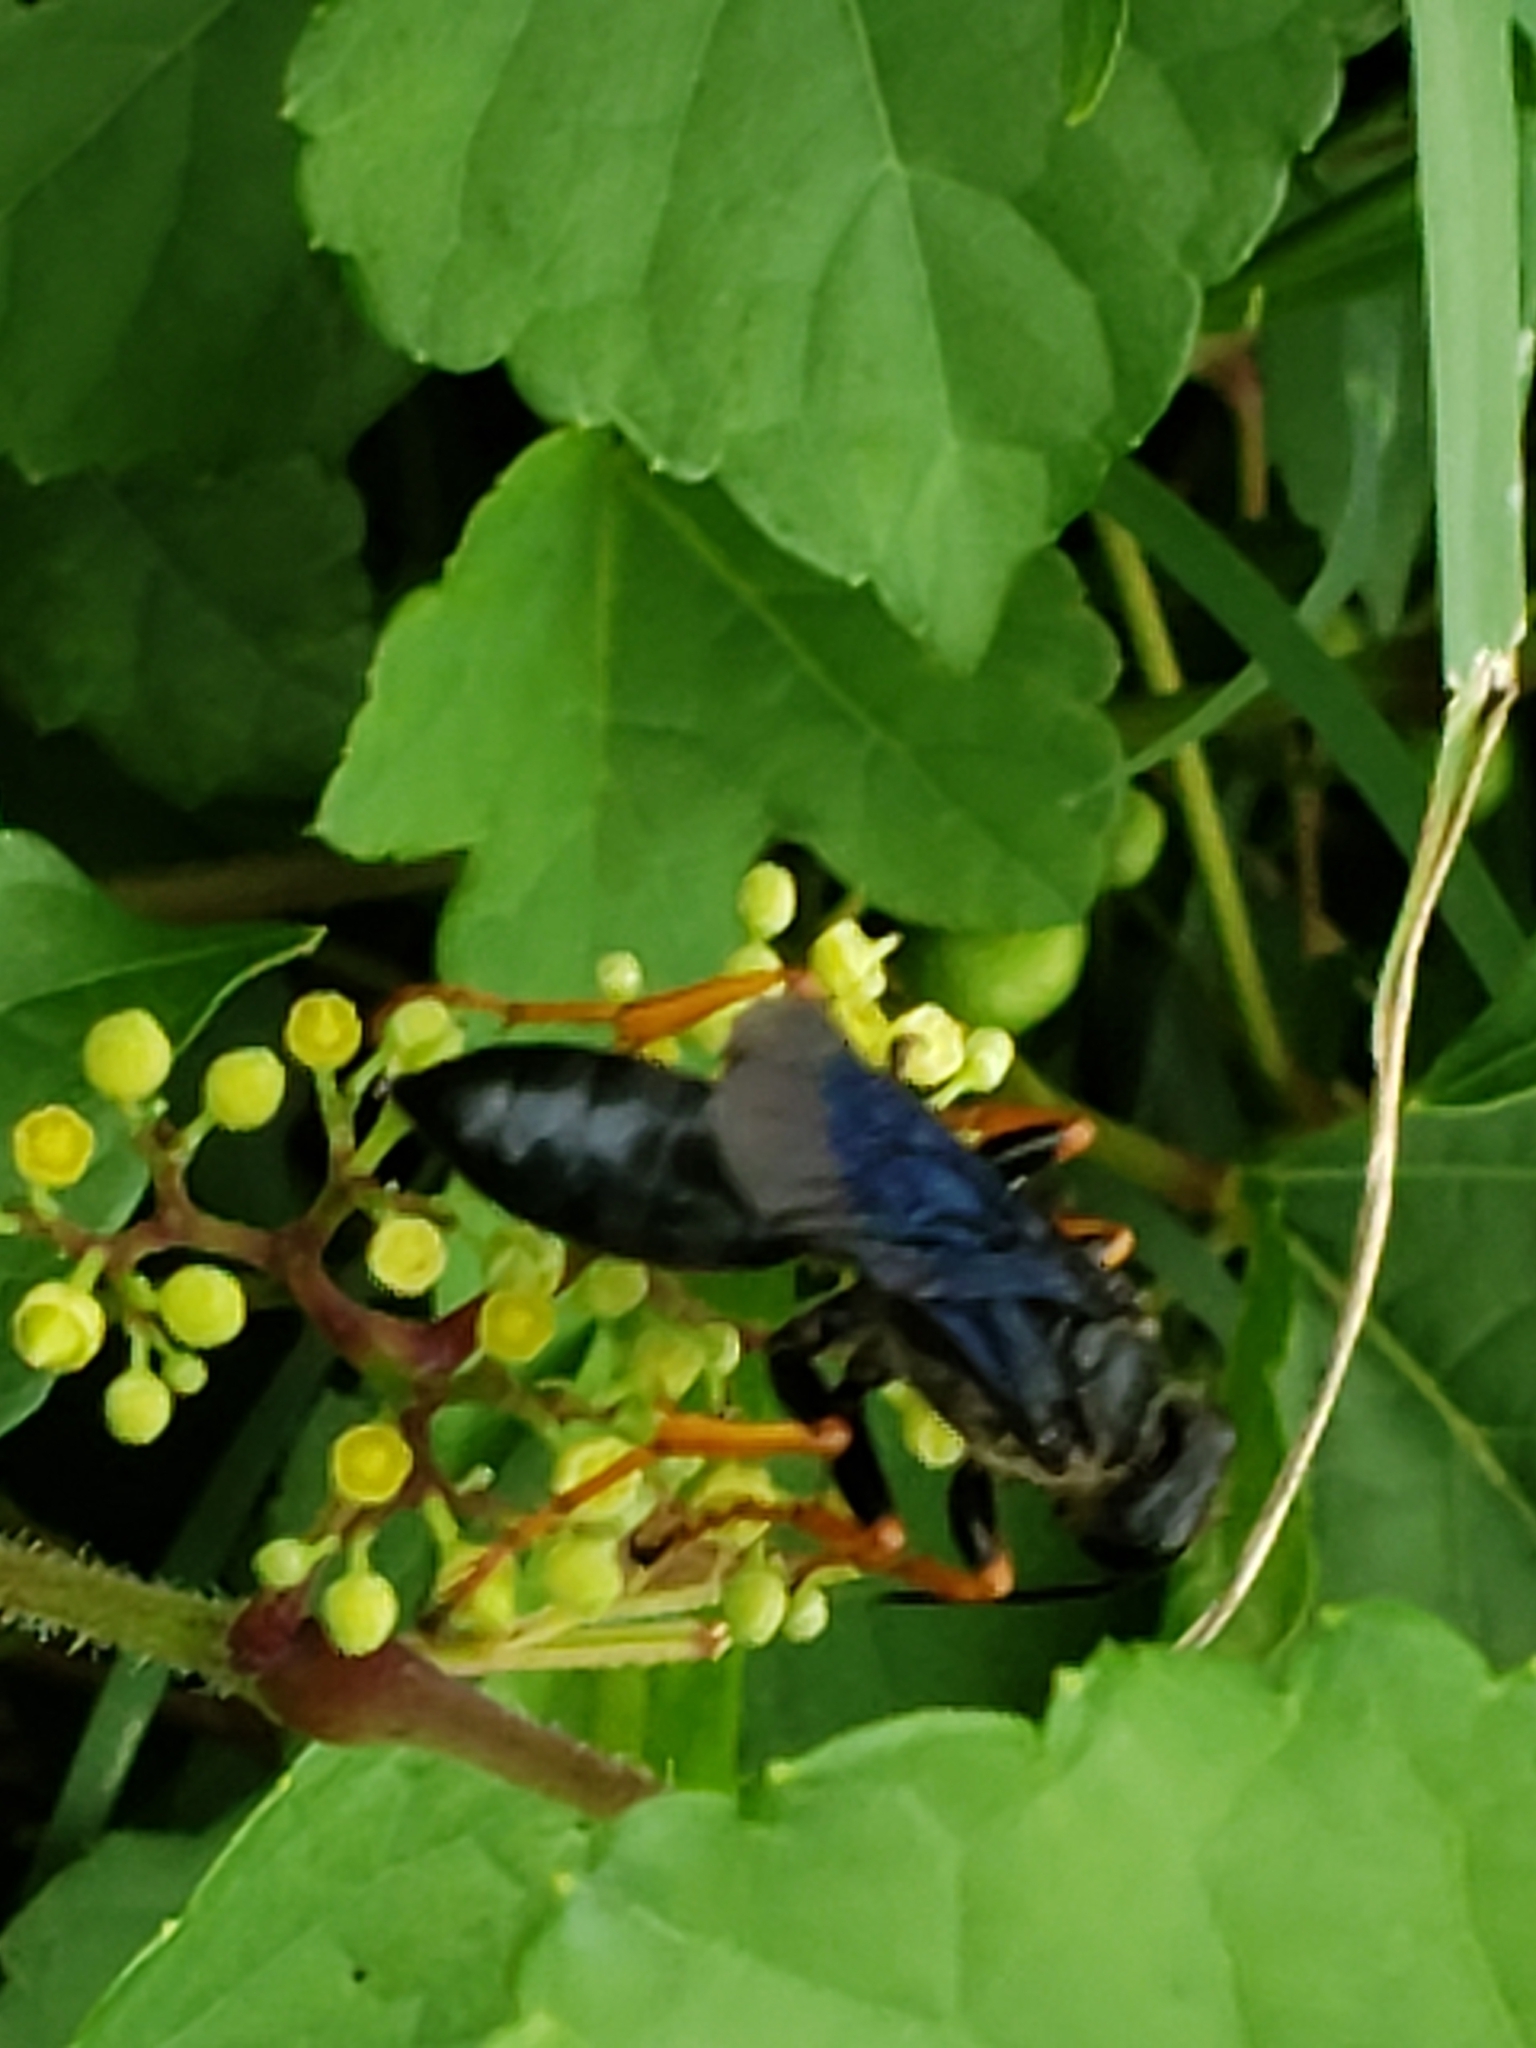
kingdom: Animalia
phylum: Arthropoda
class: Insecta
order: Hymenoptera
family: Sphecidae
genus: Sphex
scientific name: Sphex nudus
